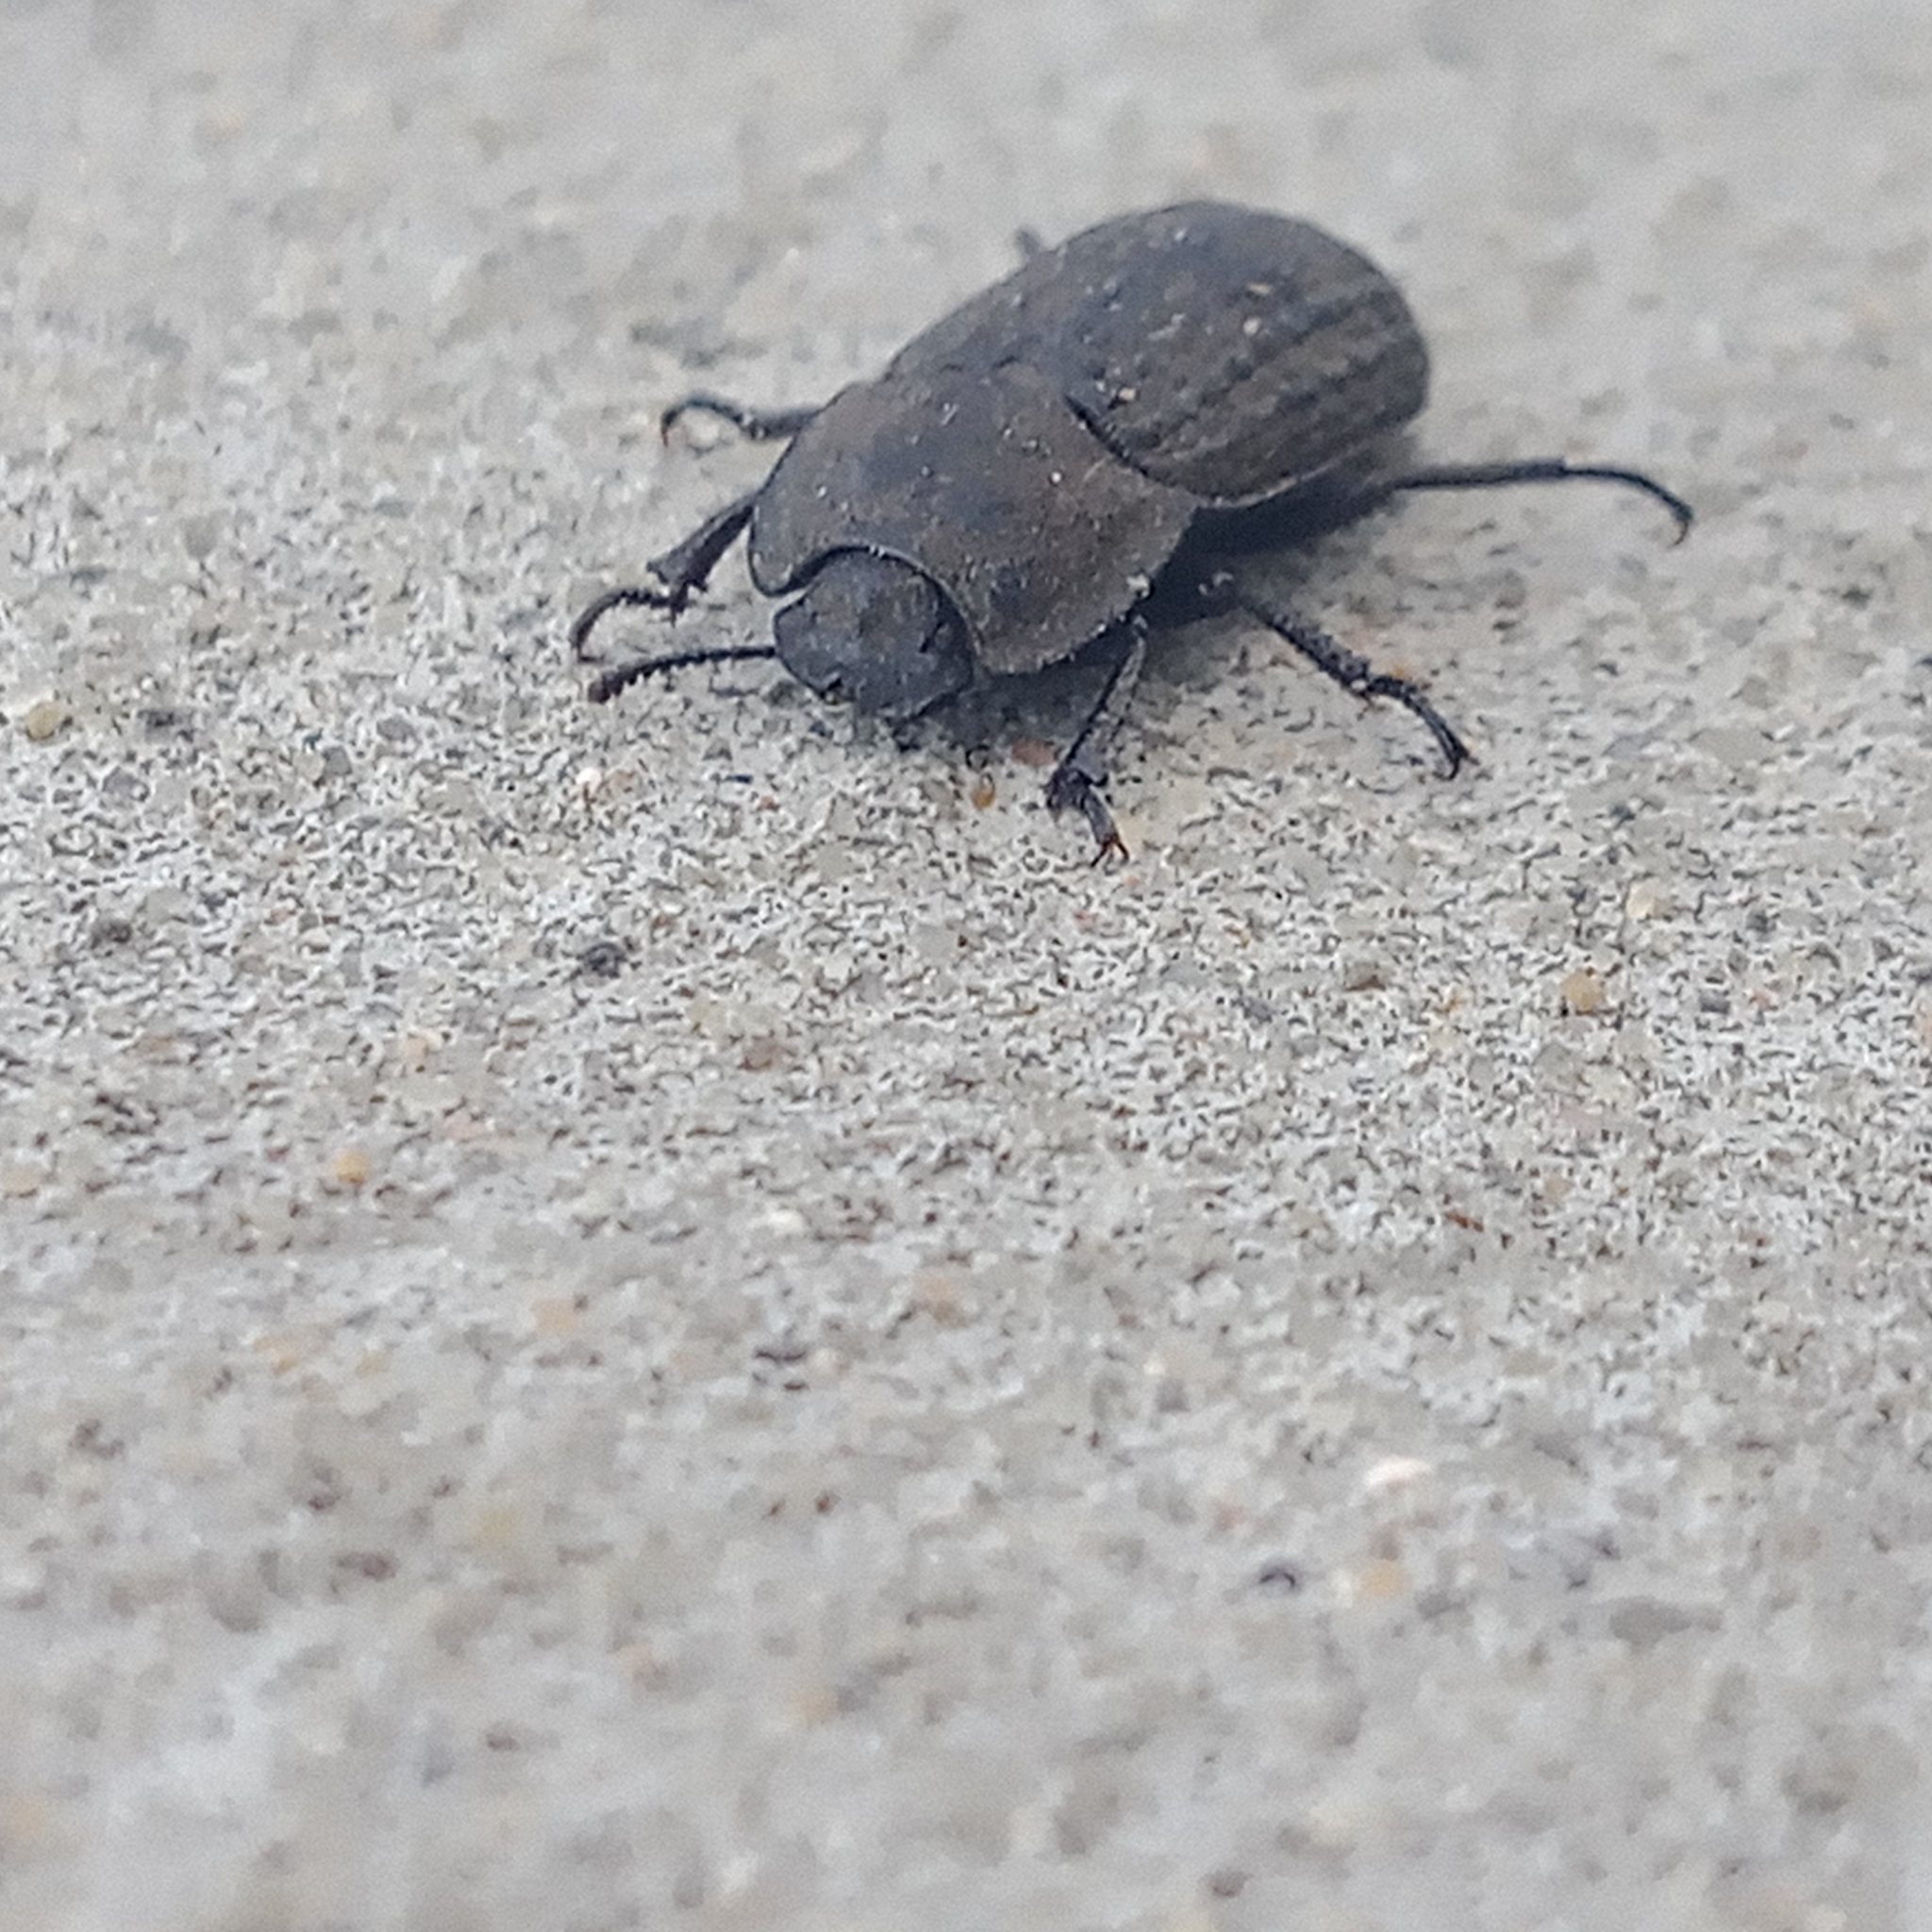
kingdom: Animalia
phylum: Arthropoda
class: Insecta
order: Coleoptera
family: Tenebrionidae
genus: Opatrum
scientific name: Opatrum sabulosum
